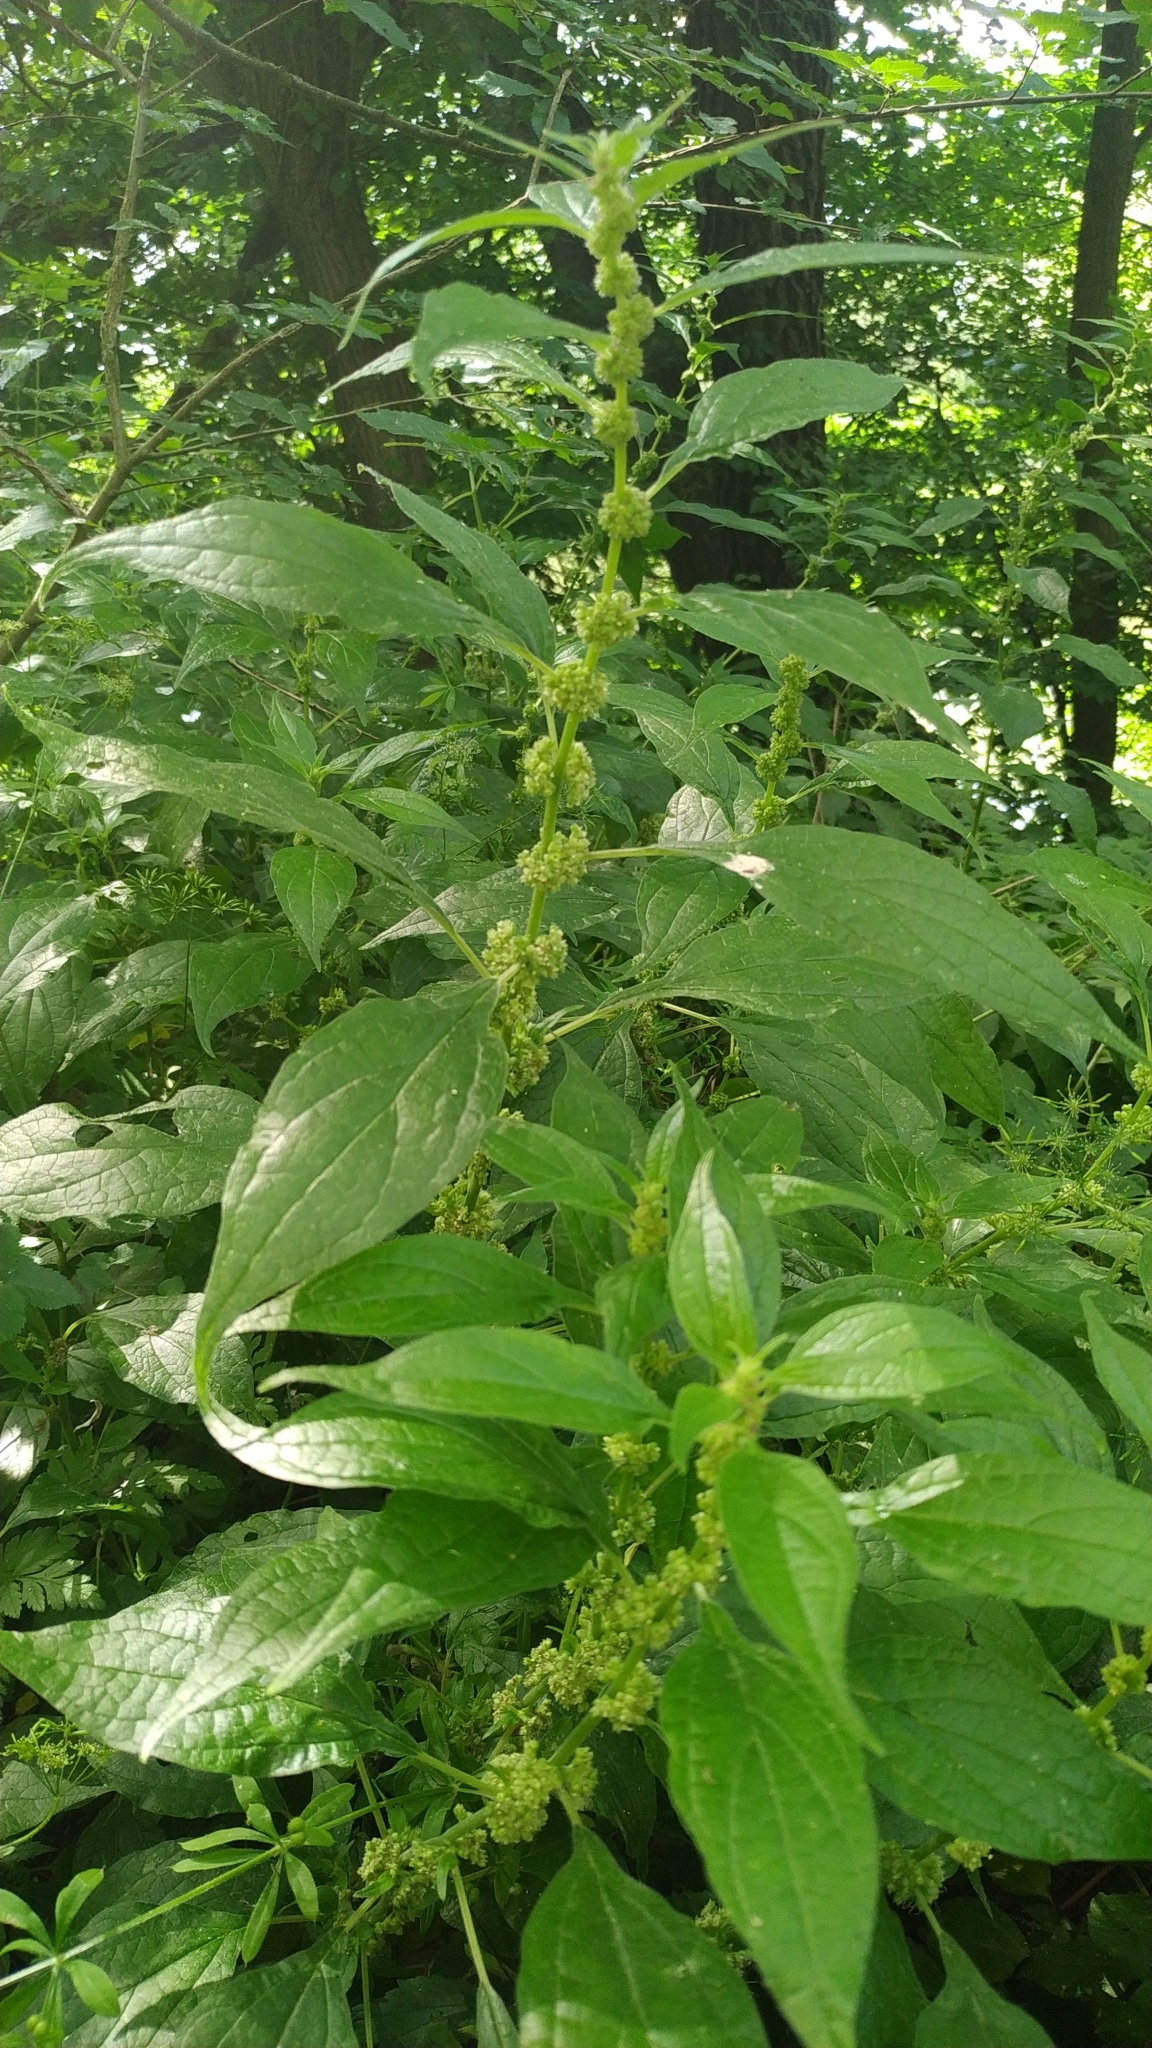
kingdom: Plantae
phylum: Tracheophyta
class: Magnoliopsida
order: Rosales
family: Urticaceae
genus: Parietaria
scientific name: Parietaria officinalis
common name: Eastern pellitory-of-the-wall
